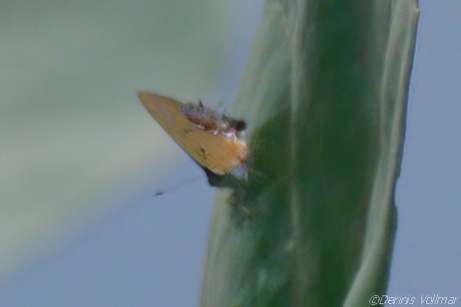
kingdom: Animalia
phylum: Arthropoda
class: Insecta
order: Lepidoptera
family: Lycaenidae
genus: Thecla
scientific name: Thecla maesites
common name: Verde azul hairstreak
